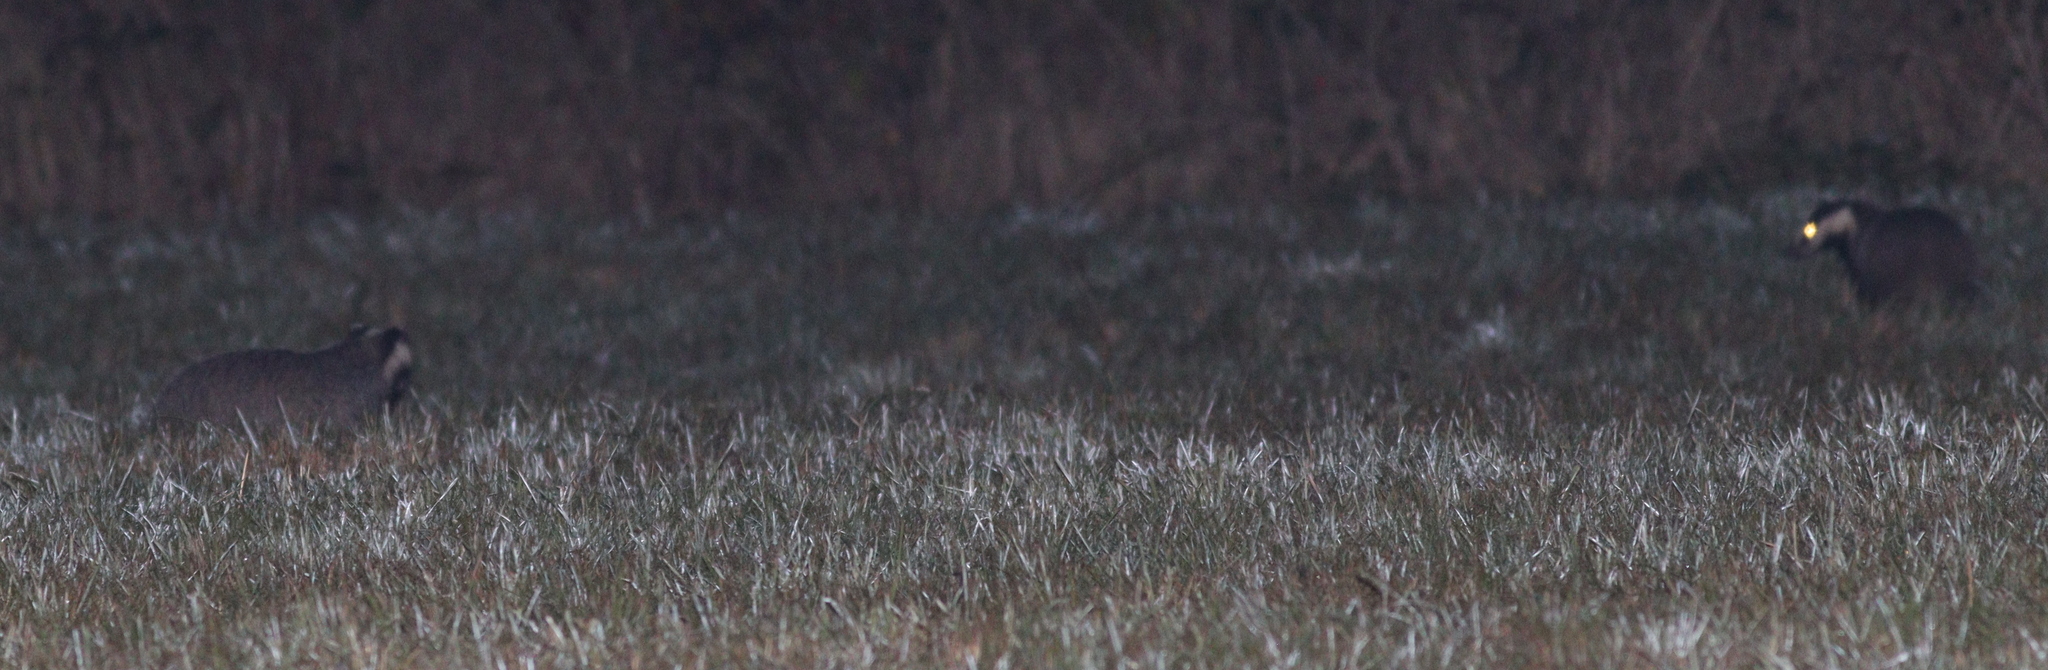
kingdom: Animalia
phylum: Chordata
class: Mammalia
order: Carnivora
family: Mustelidae
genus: Meles
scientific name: Meles meles
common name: Eurasian badger
